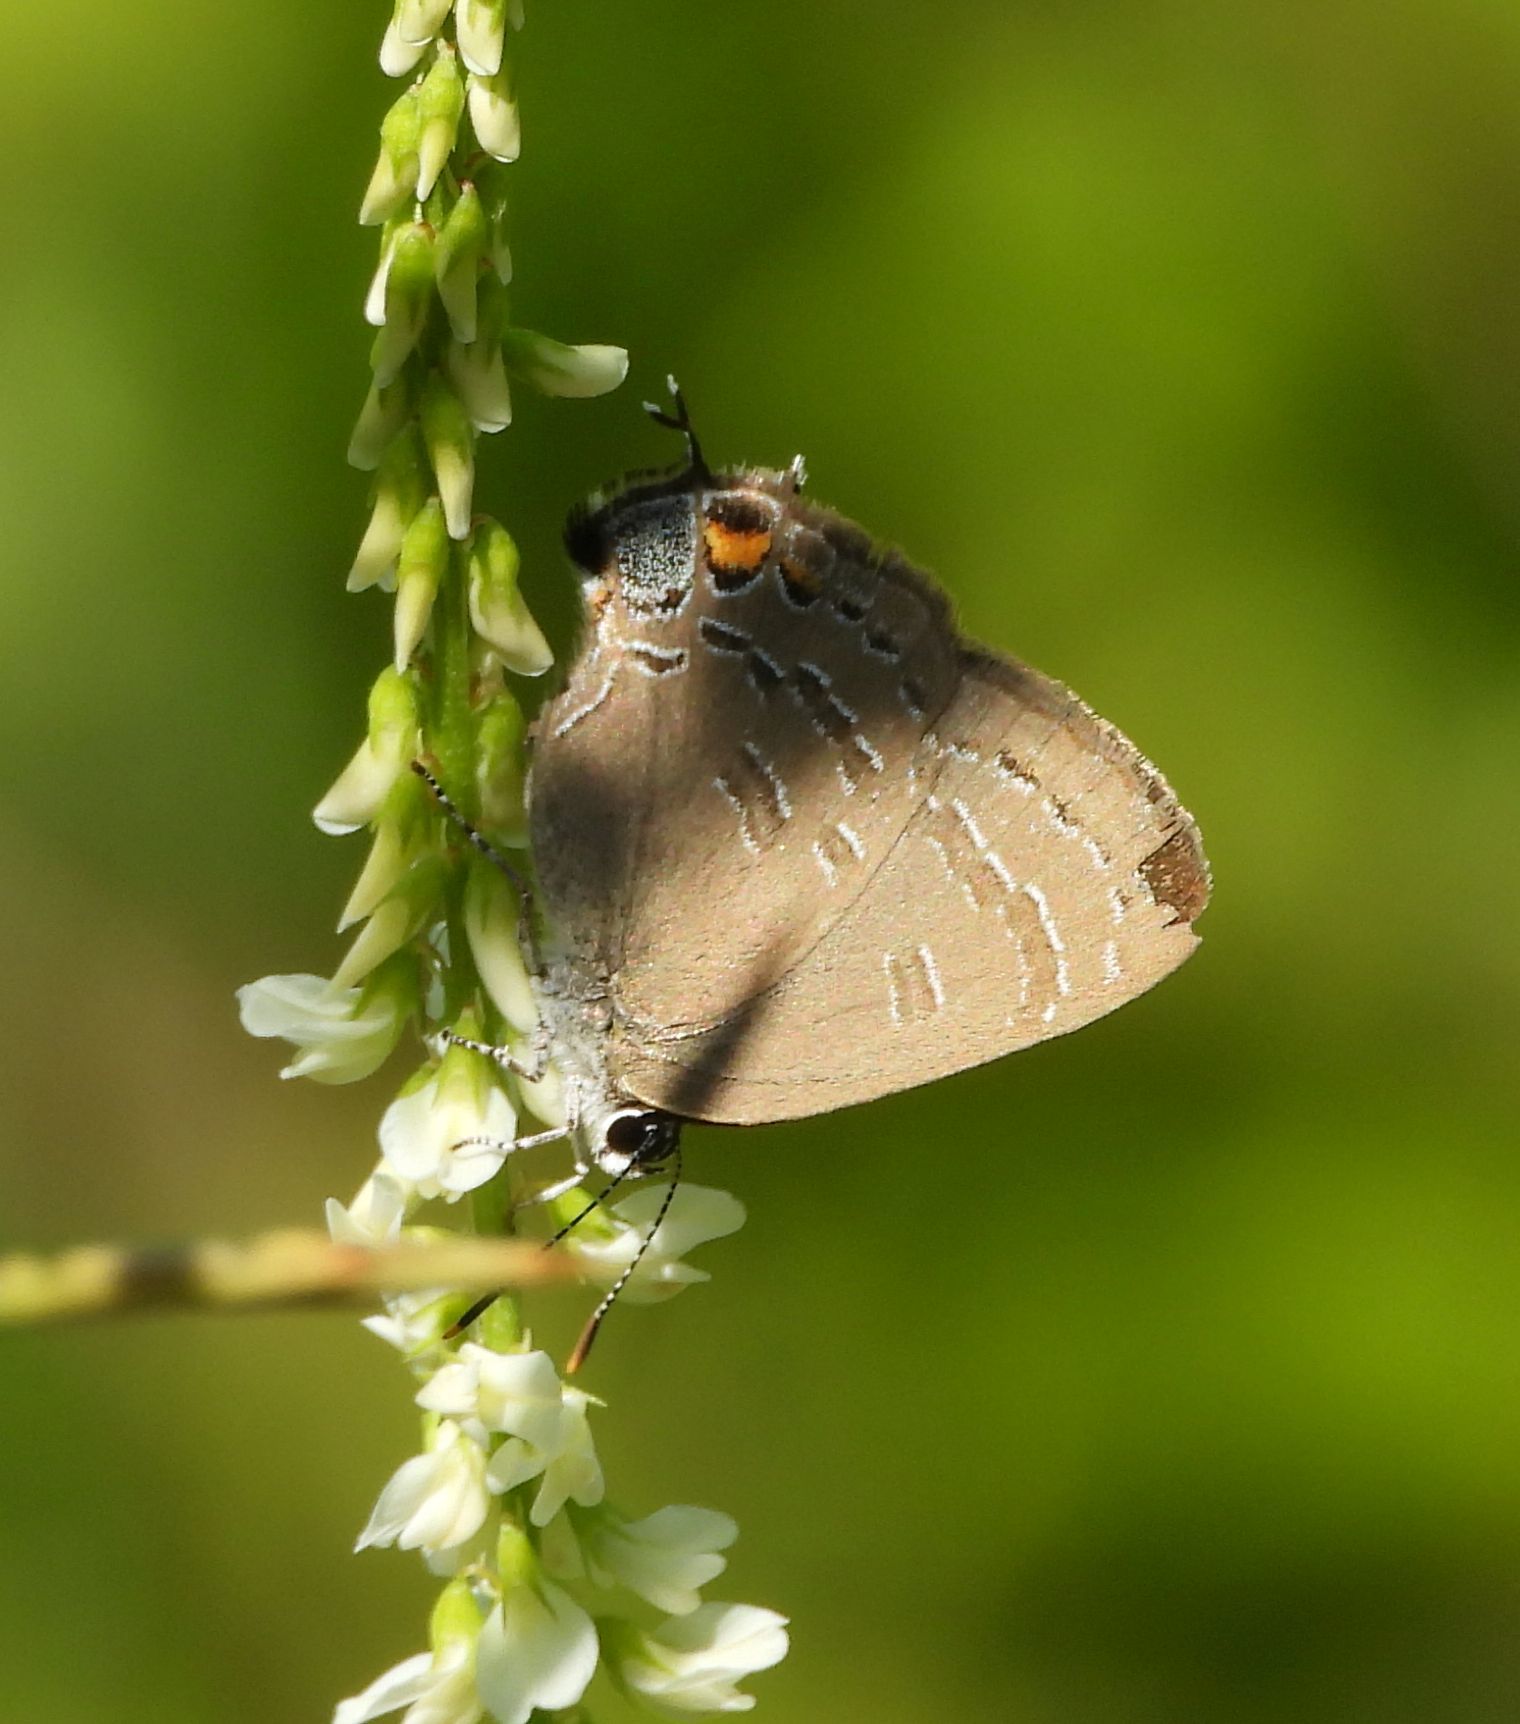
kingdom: Animalia
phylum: Arthropoda
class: Insecta
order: Lepidoptera
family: Lycaenidae
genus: Satyrium
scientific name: Satyrium calanus
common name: Banded hairstreak
